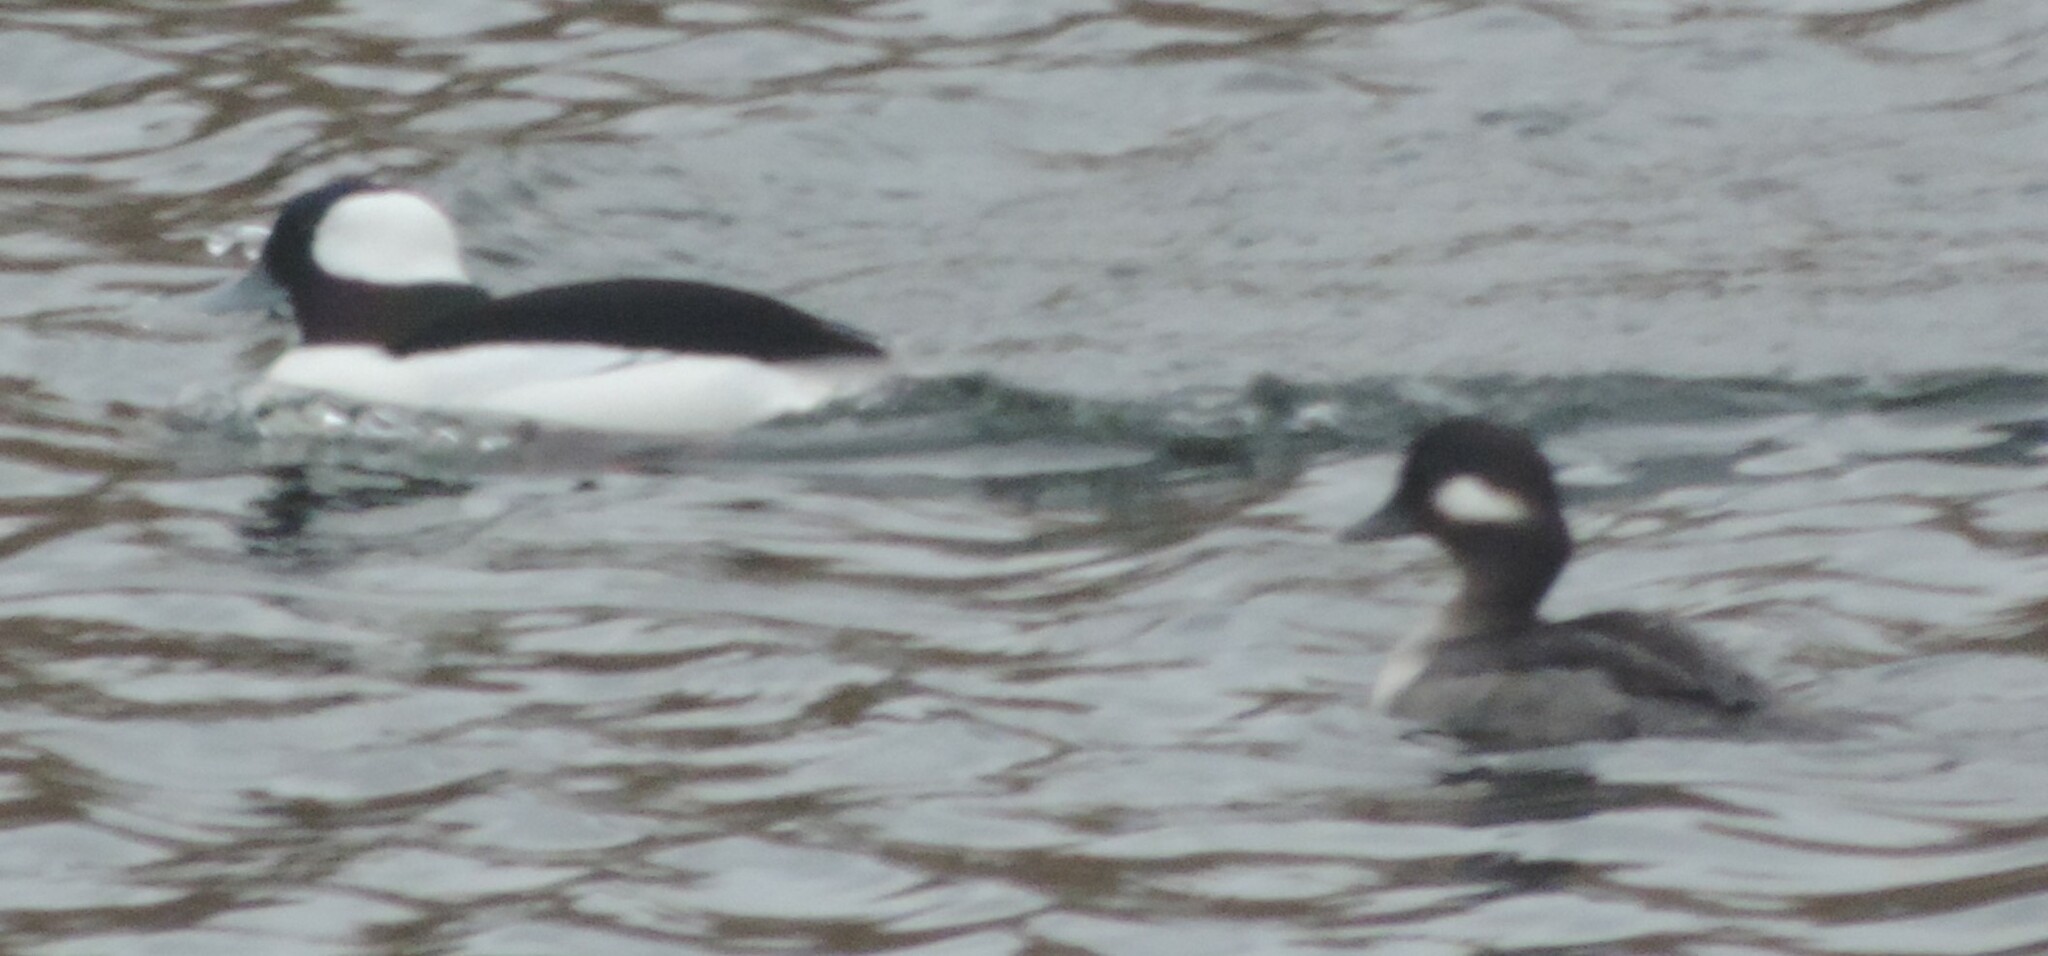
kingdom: Animalia
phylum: Chordata
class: Aves
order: Anseriformes
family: Anatidae
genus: Bucephala
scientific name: Bucephala albeola
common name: Bufflehead
